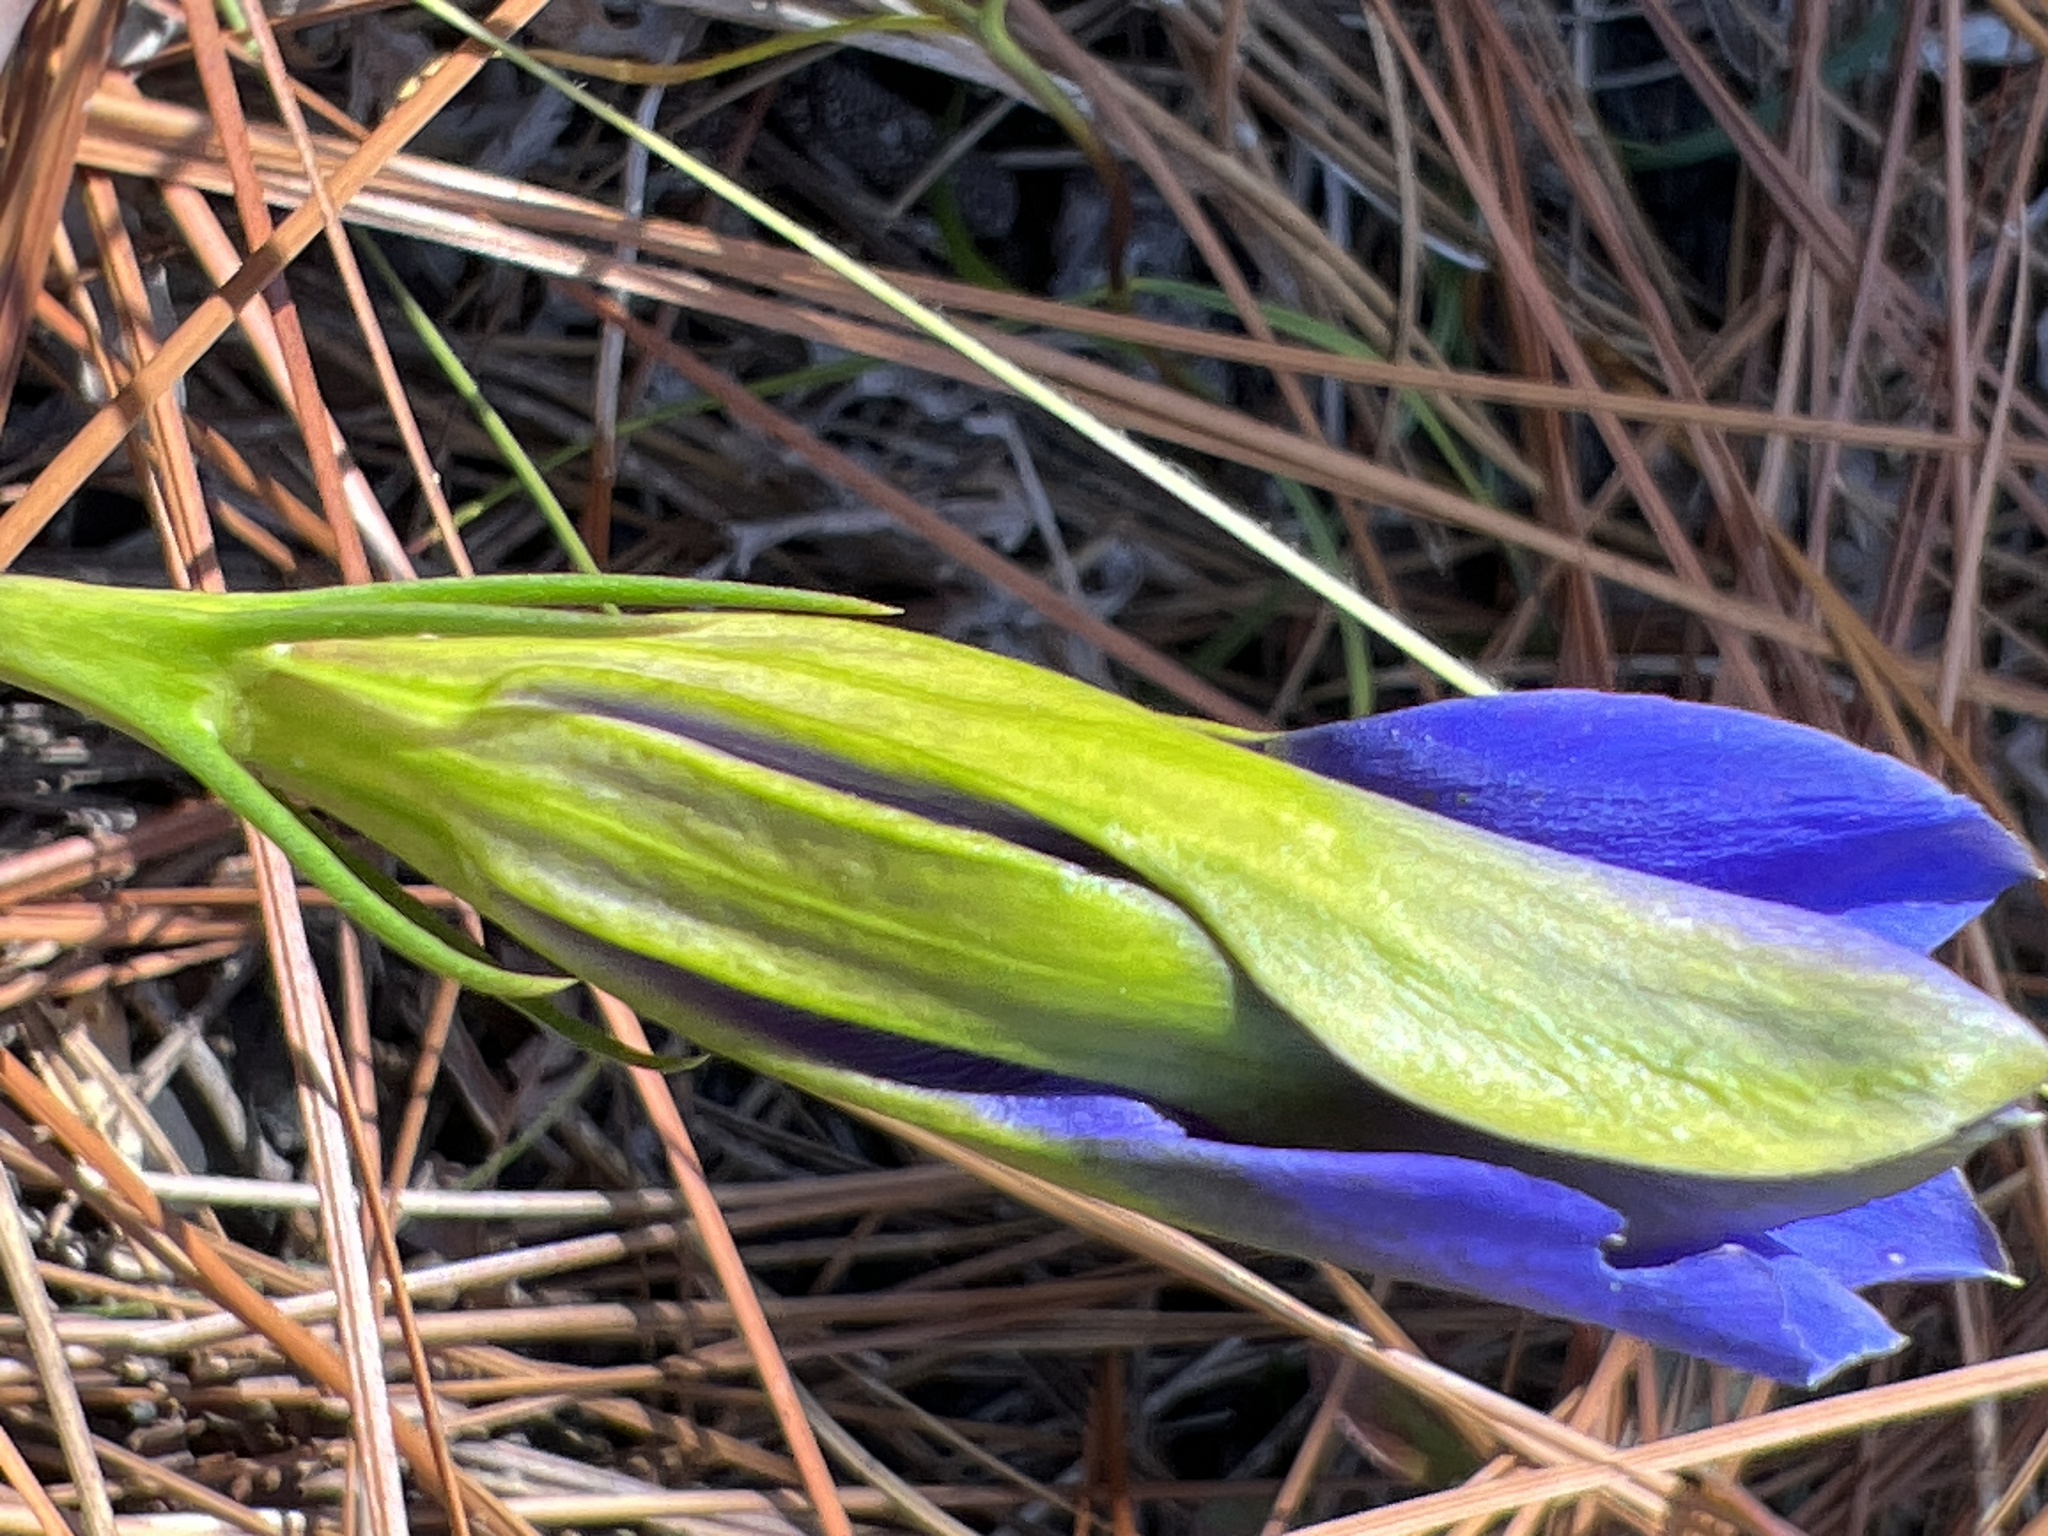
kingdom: Plantae
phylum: Tracheophyta
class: Magnoliopsida
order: Gentianales
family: Gentianaceae
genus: Gentiana
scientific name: Gentiana autumnalis
